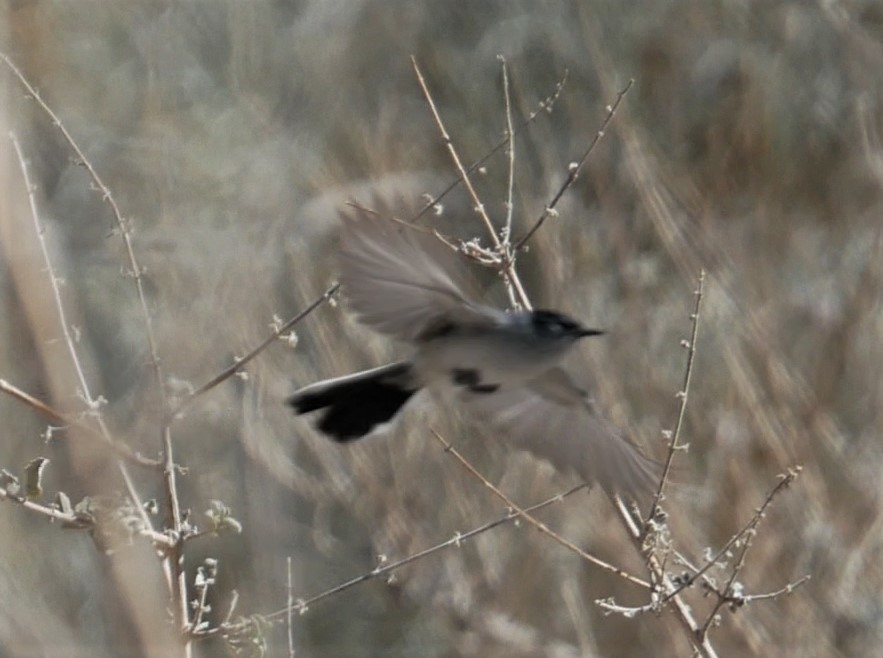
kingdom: Animalia
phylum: Chordata
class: Aves
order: Passeriformes
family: Polioptilidae
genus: Polioptila
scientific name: Polioptila melanura
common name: Black-tailed gnatcatcher
